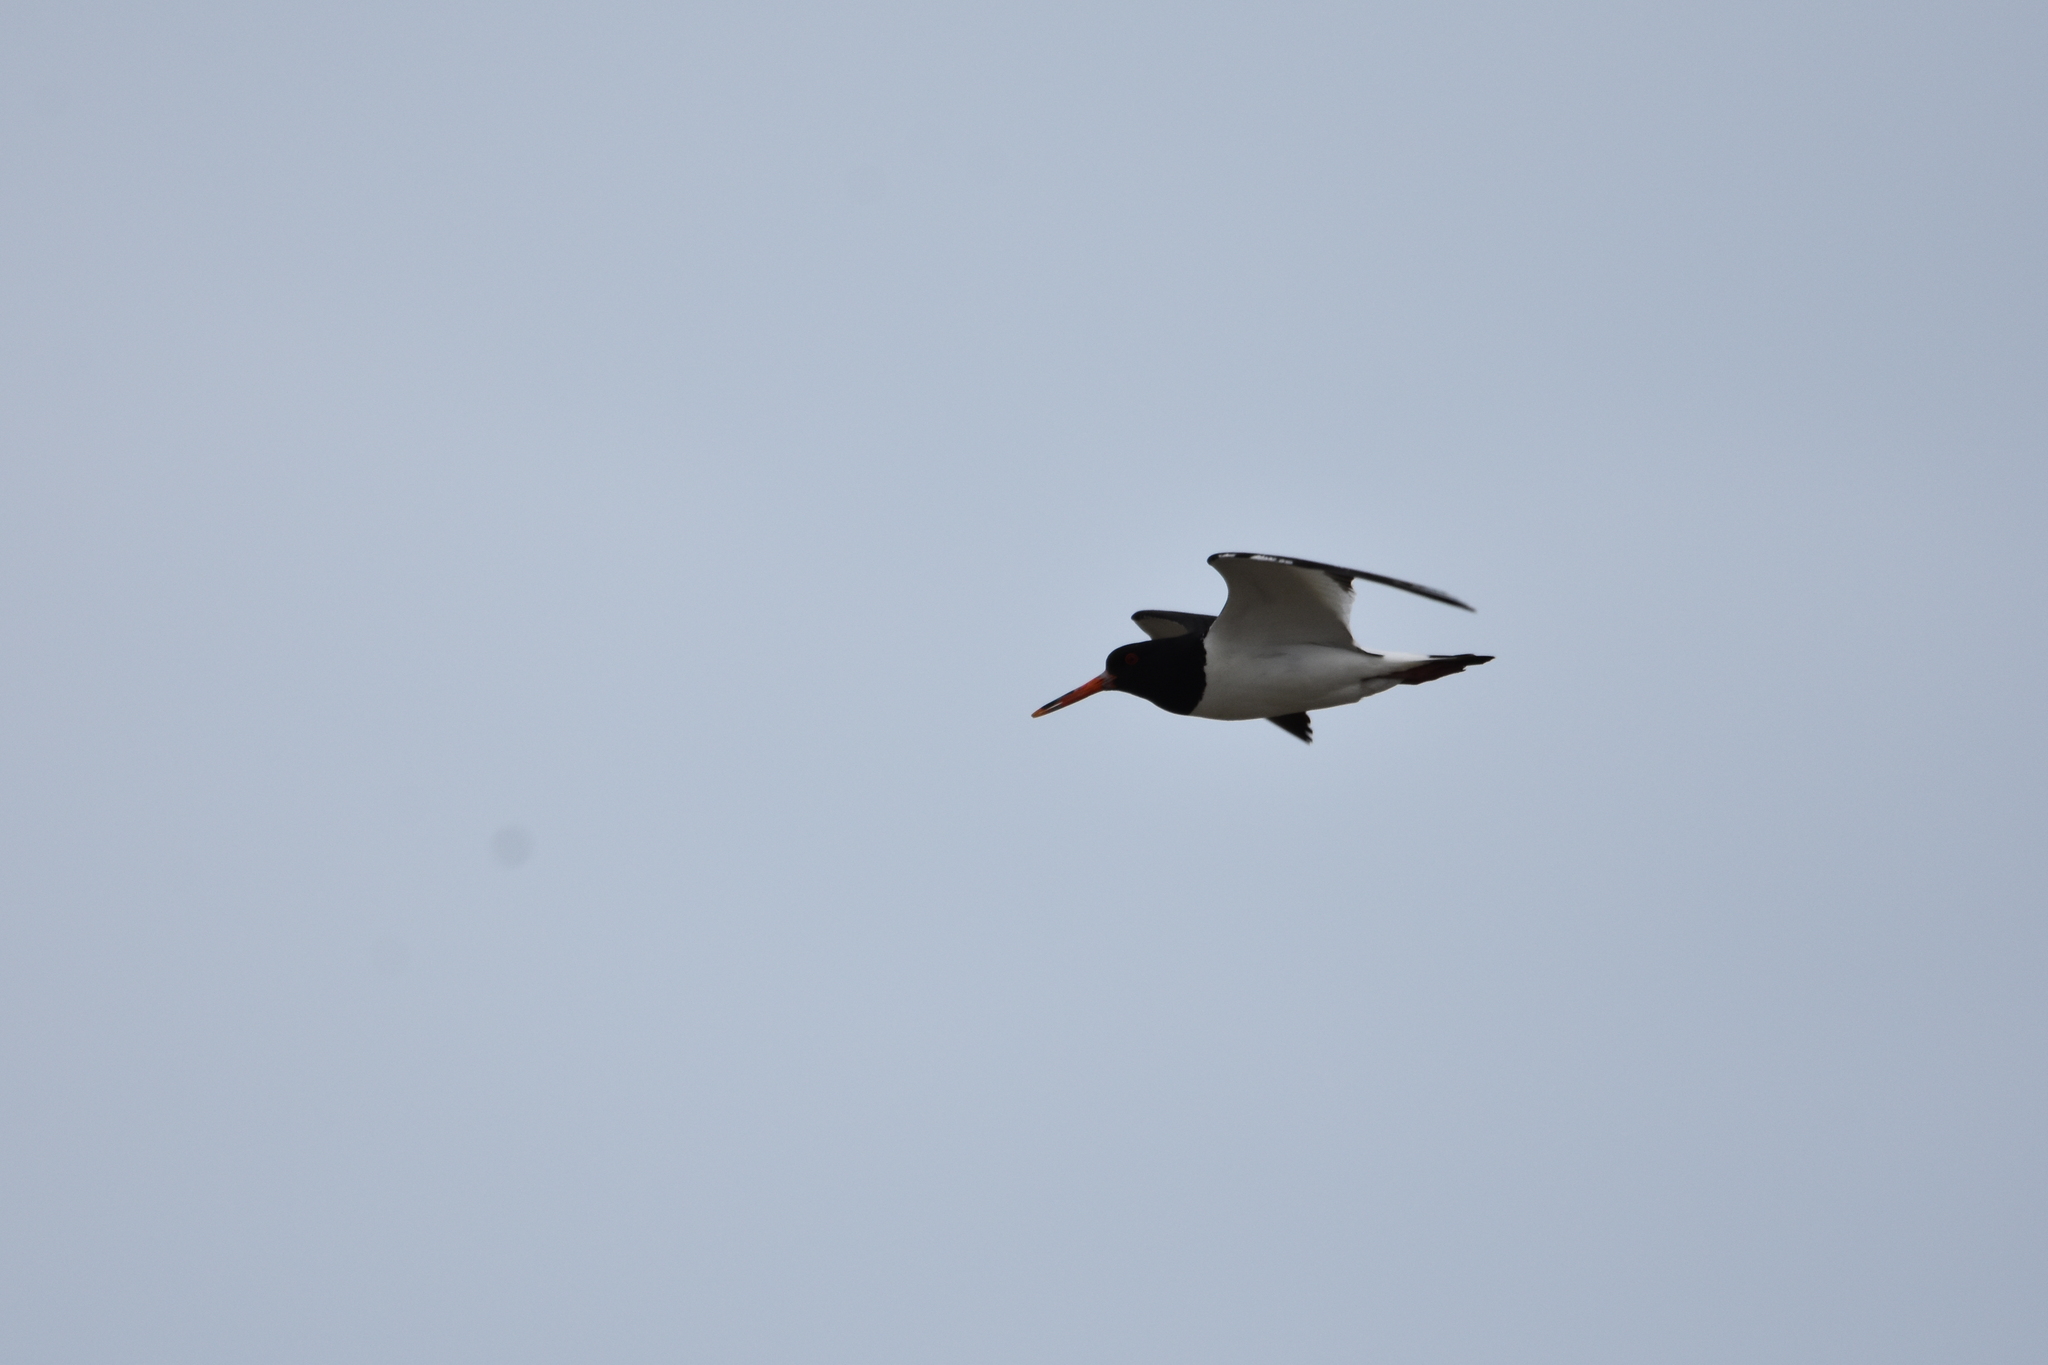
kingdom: Animalia
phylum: Chordata
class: Aves
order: Charadriiformes
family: Haematopodidae
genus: Haematopus
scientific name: Haematopus ostralegus
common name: Eurasian oystercatcher
